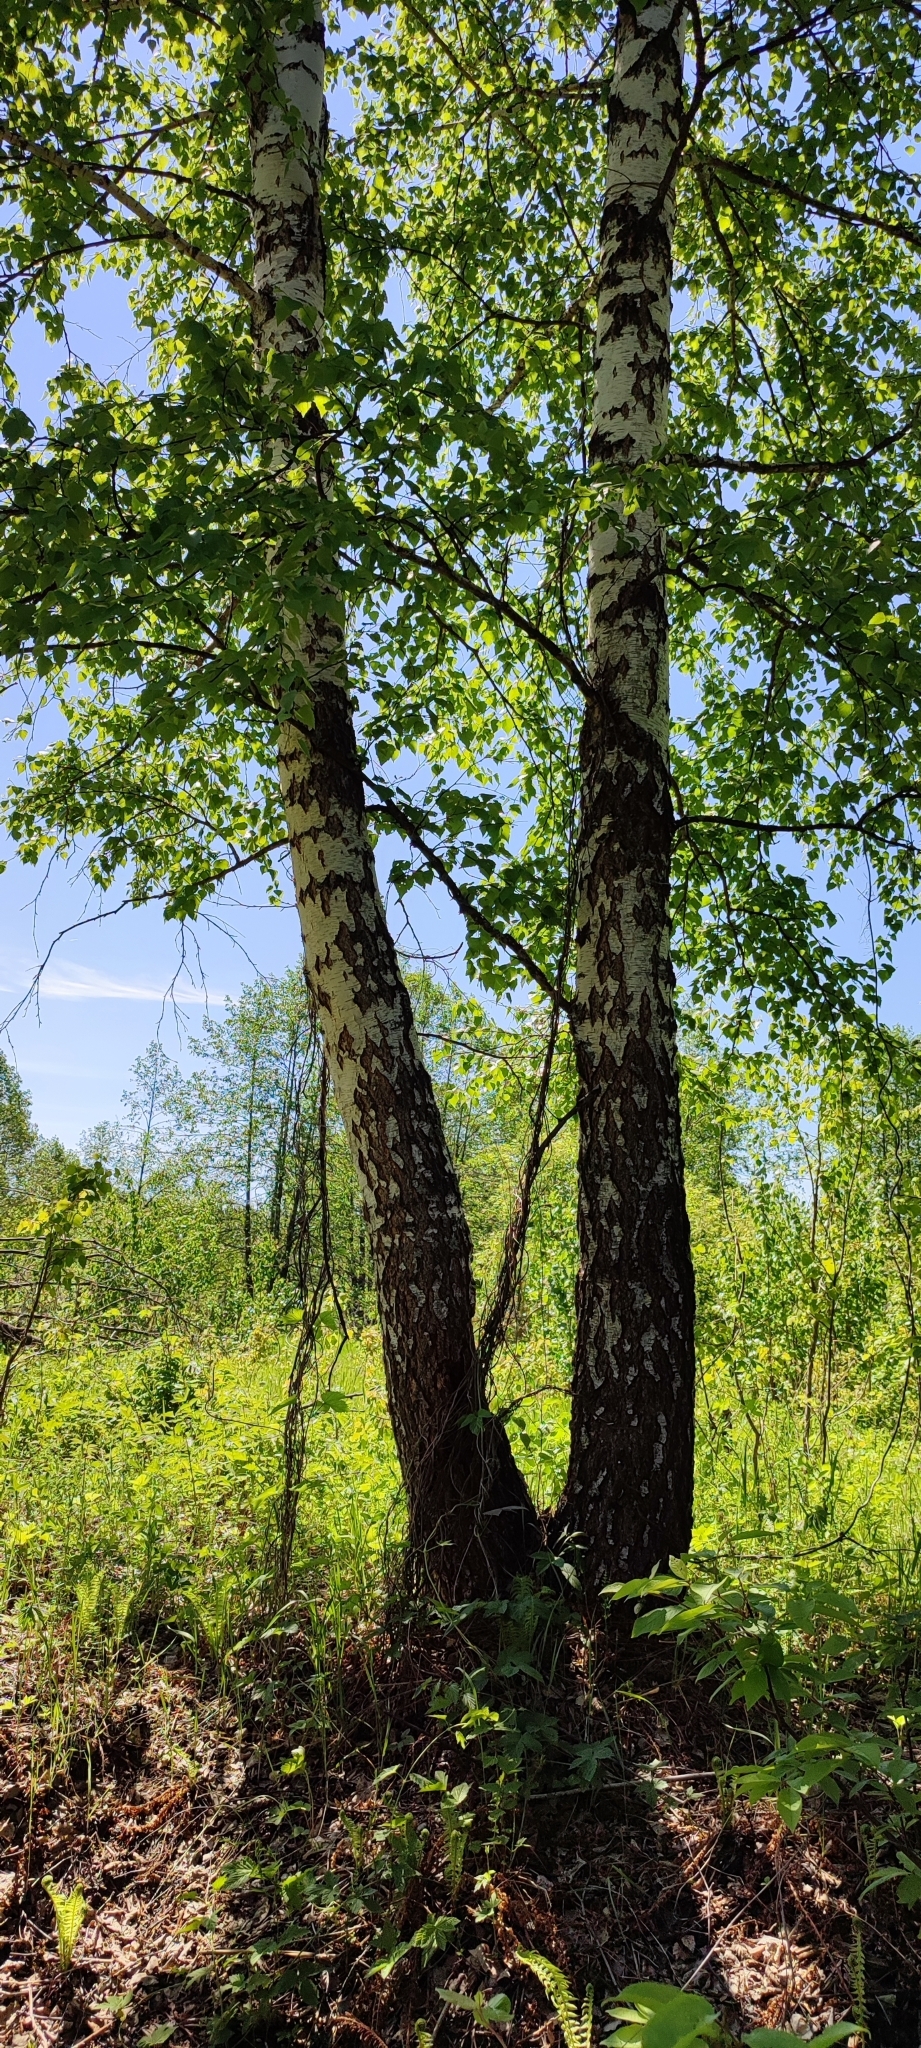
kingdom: Plantae
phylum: Tracheophyta
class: Magnoliopsida
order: Fagales
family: Betulaceae
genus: Betula
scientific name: Betula pendula
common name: Silver birch
